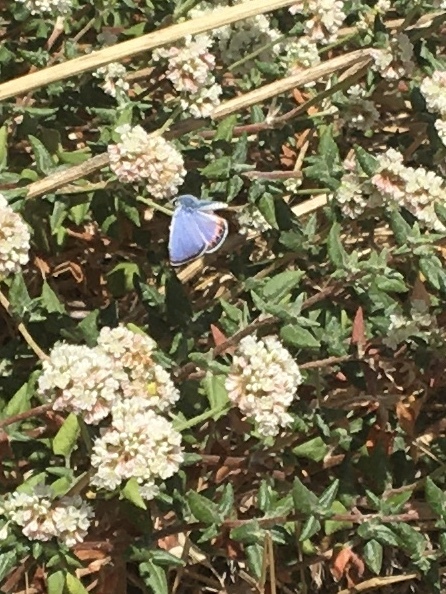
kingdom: Animalia
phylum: Arthropoda
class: Insecta
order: Lepidoptera
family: Lycaenidae
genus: Icaricia
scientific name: Icaricia acmon
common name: Acmon blue
